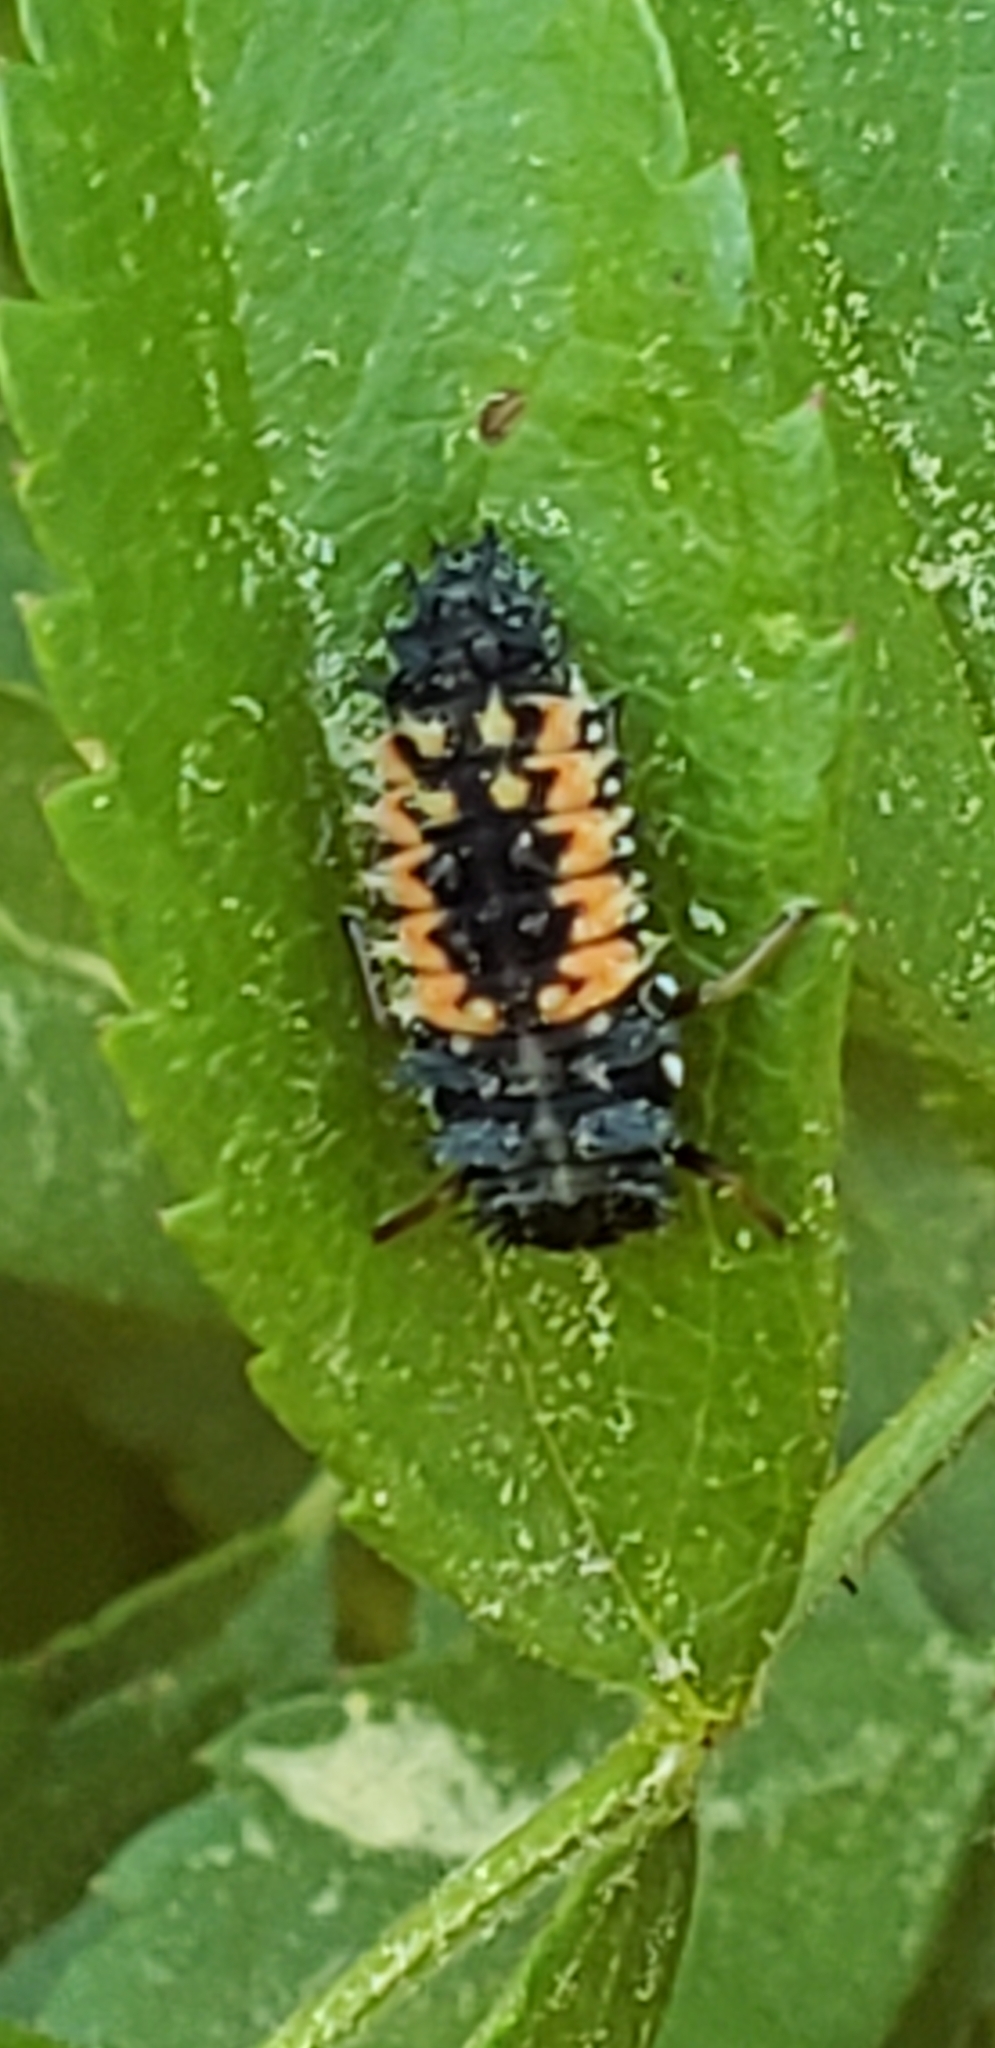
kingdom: Animalia
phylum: Arthropoda
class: Insecta
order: Coleoptera
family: Coccinellidae
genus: Harmonia
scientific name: Harmonia axyridis
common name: Harlequin ladybird
